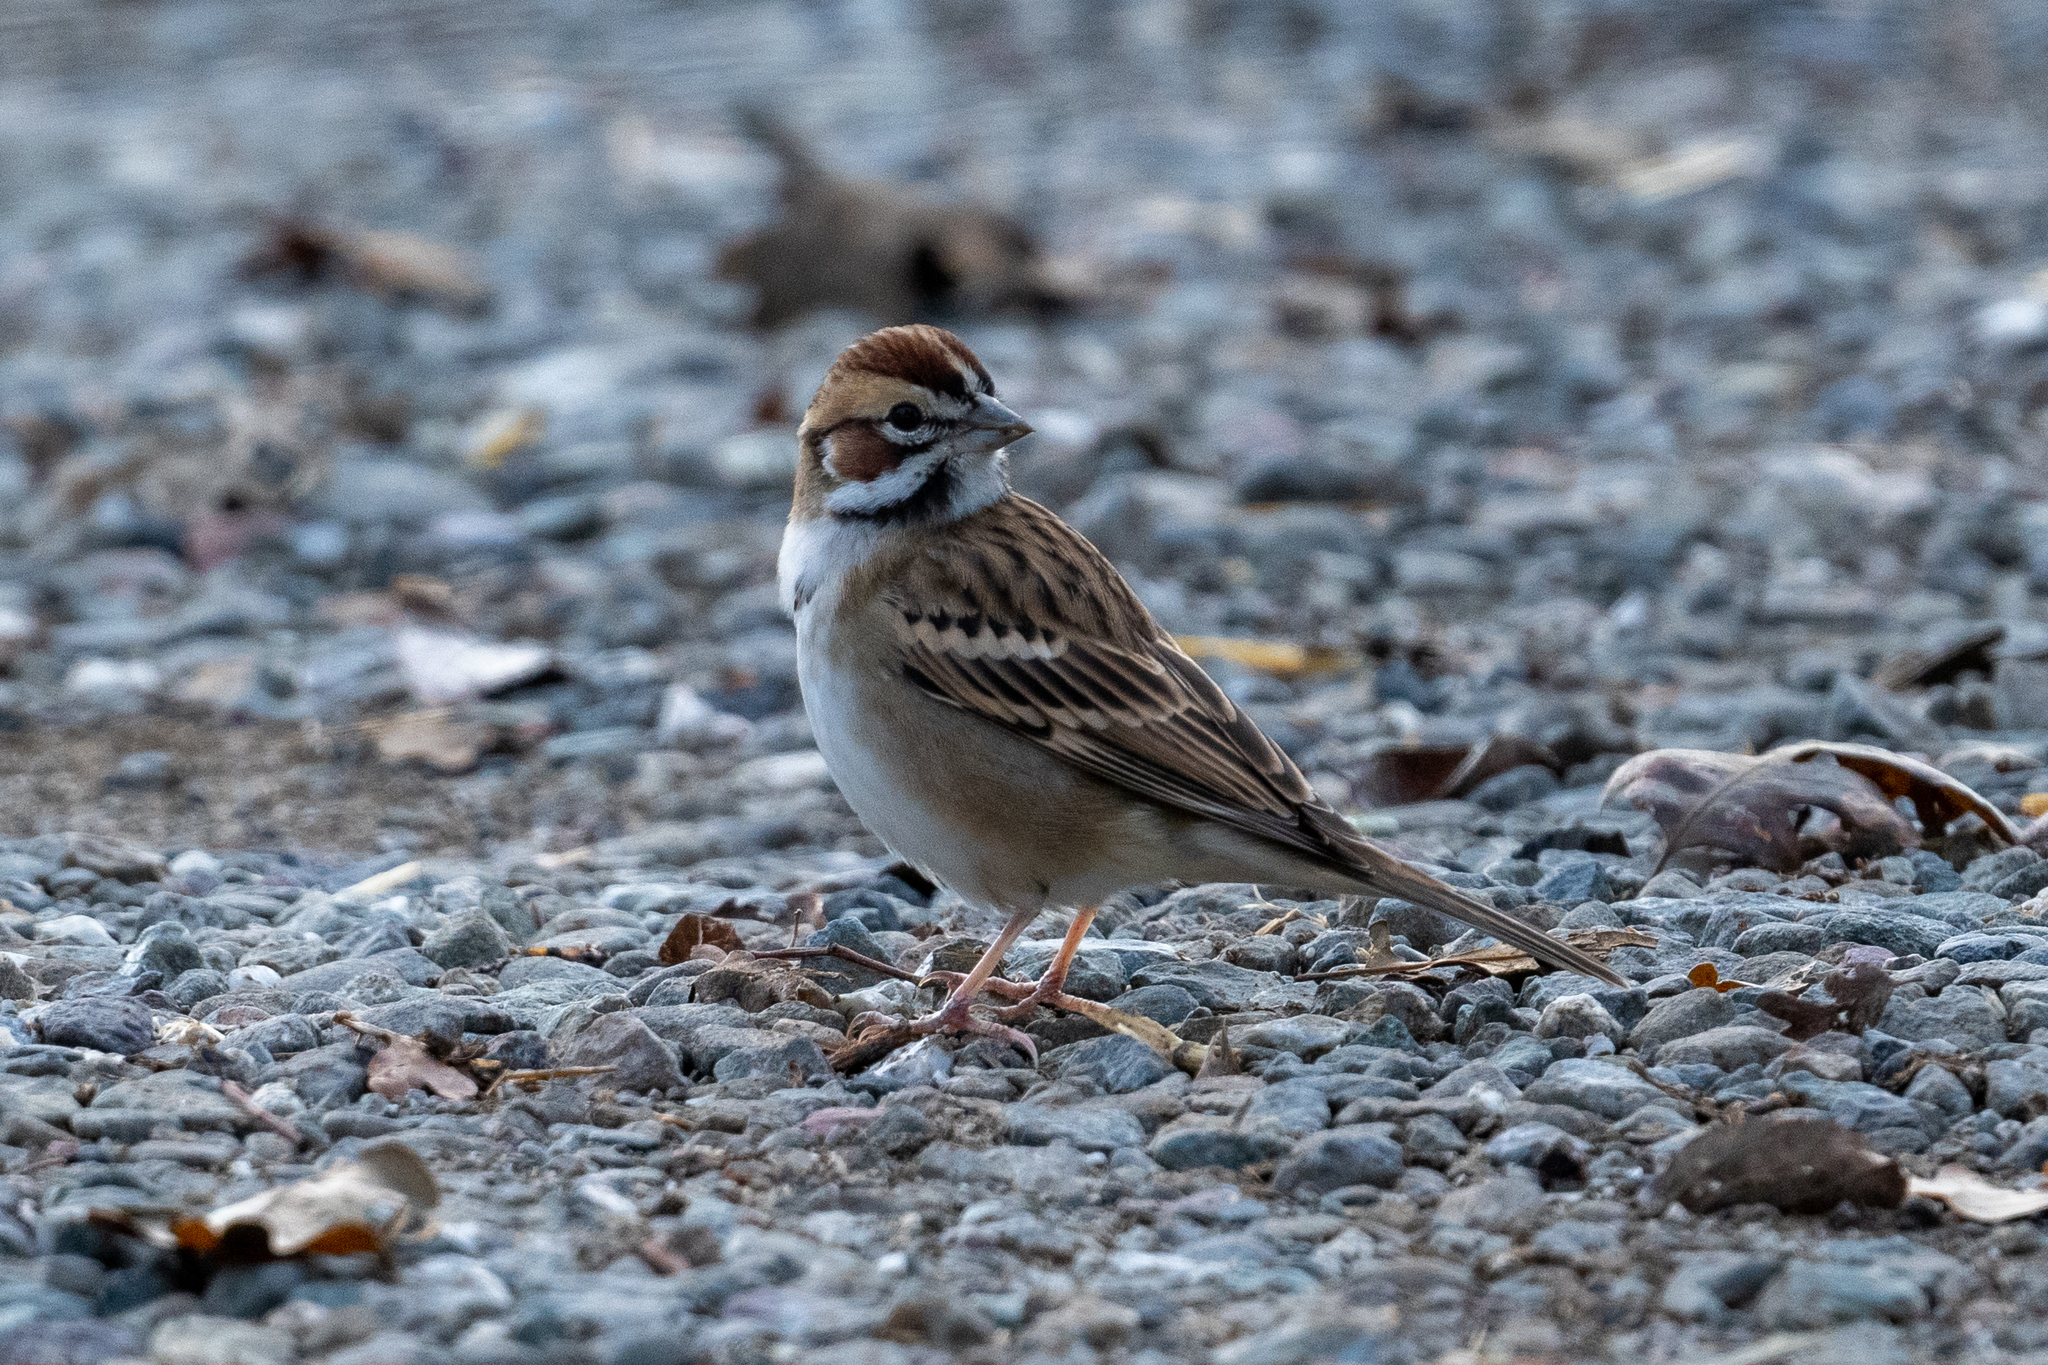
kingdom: Animalia
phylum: Chordata
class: Aves
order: Passeriformes
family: Passerellidae
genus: Chondestes
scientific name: Chondestes grammacus
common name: Lark sparrow
